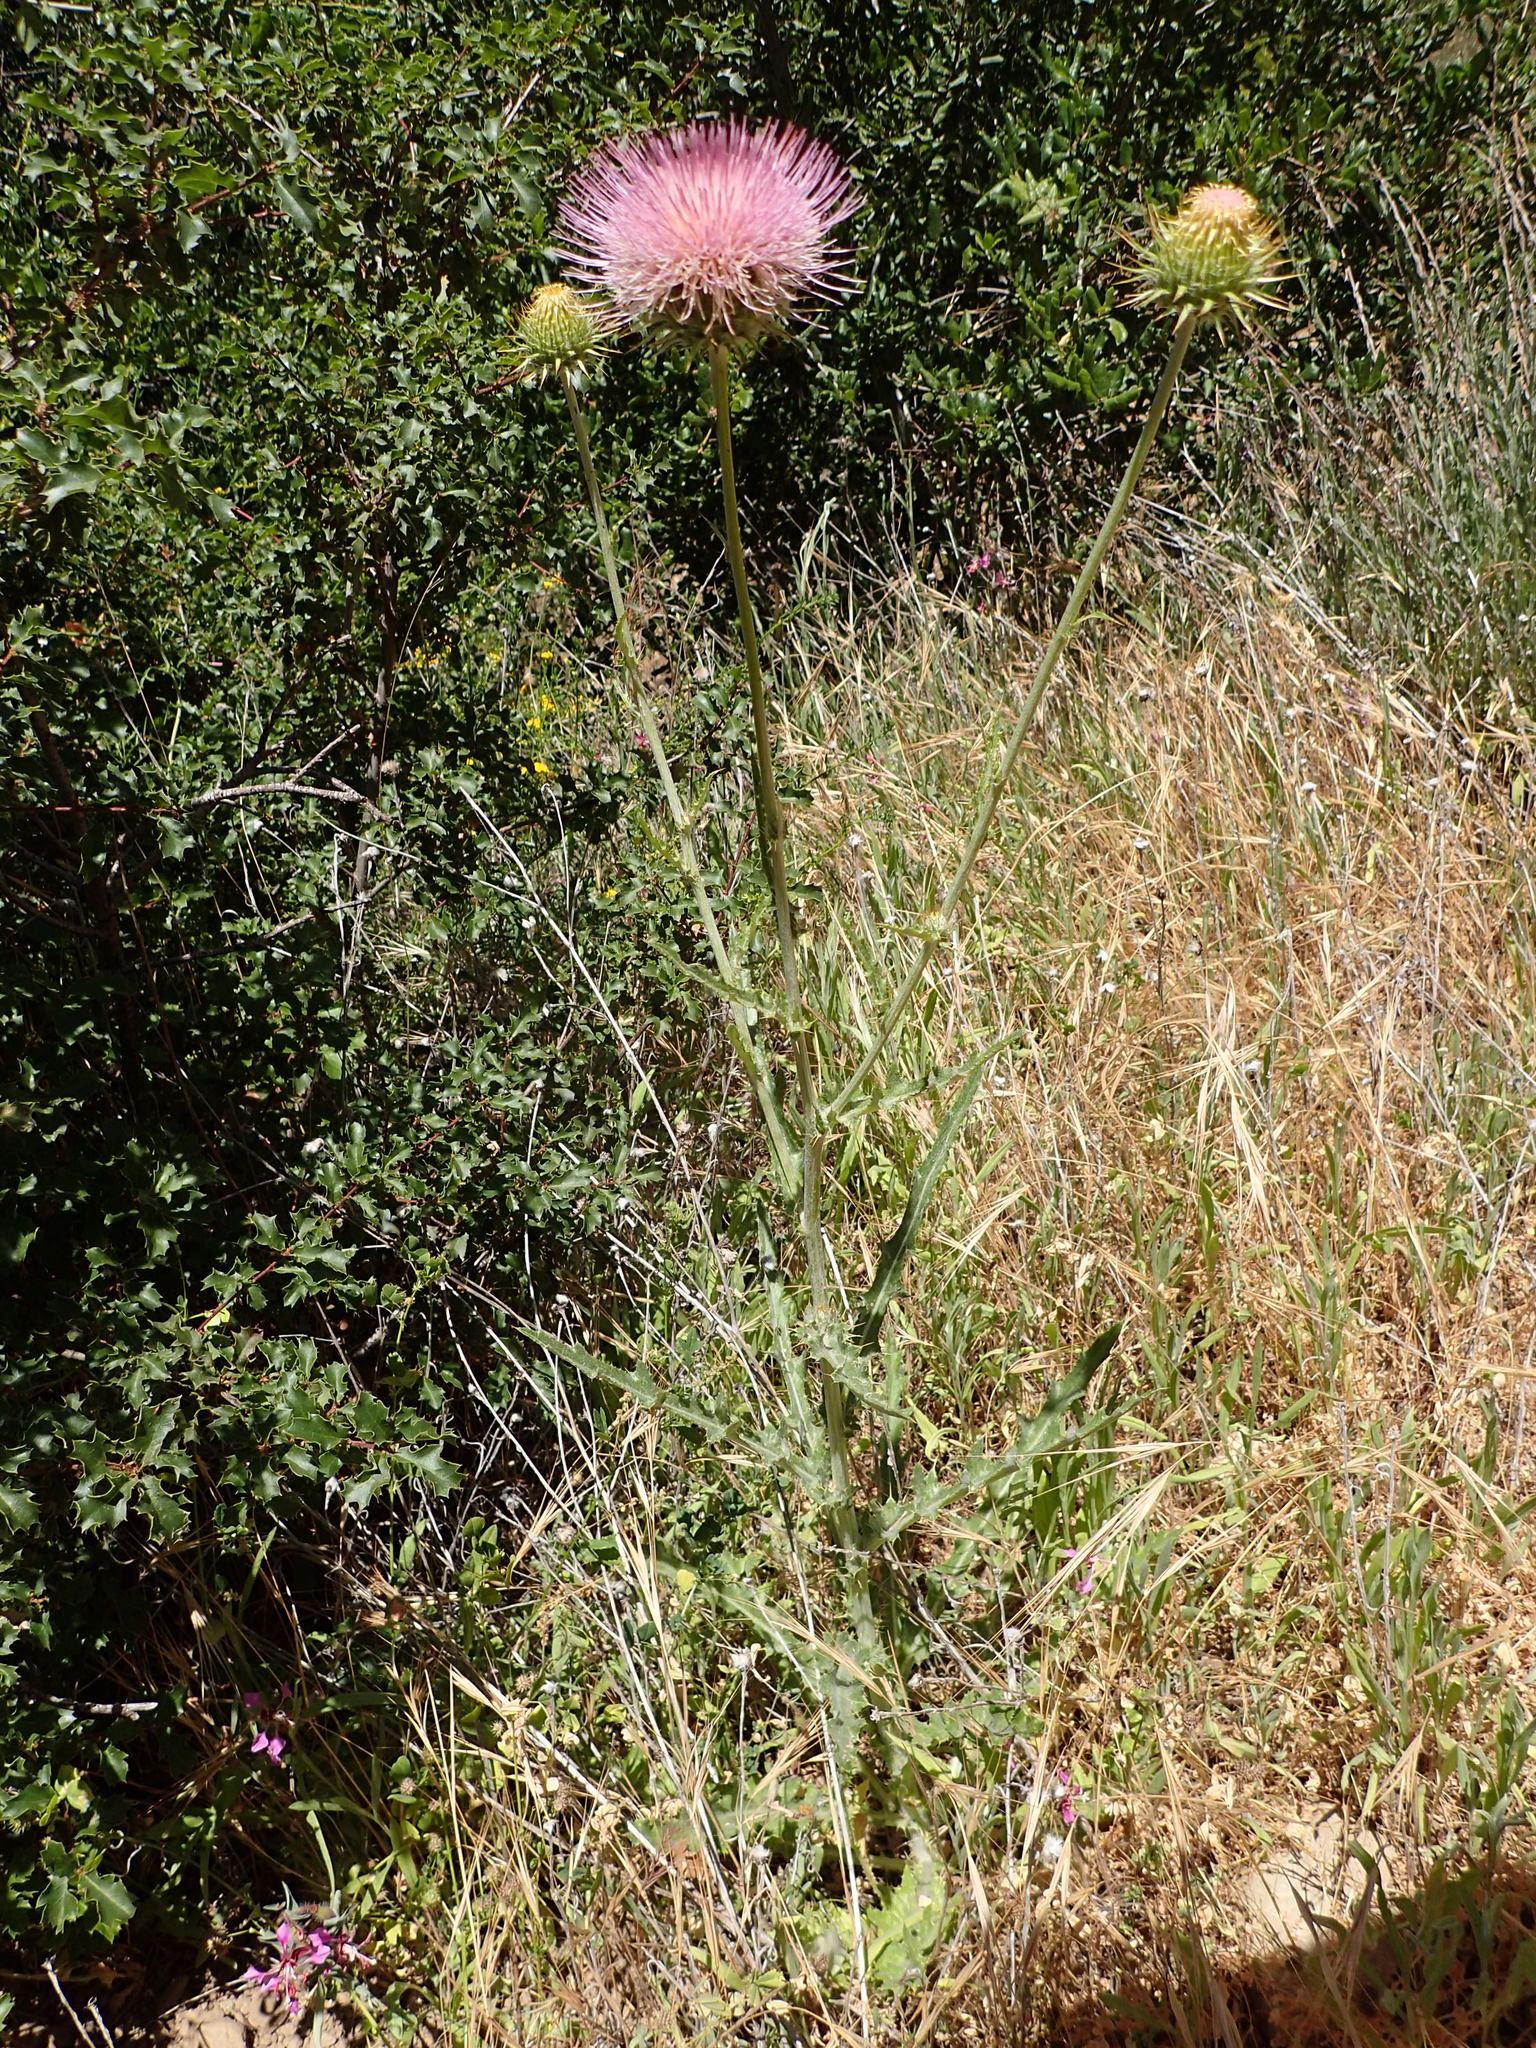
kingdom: Plantae
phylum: Tracheophyta
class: Magnoliopsida
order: Asterales
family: Asteraceae
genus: Cirsium
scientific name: Cirsium occidentale
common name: Western thistle
